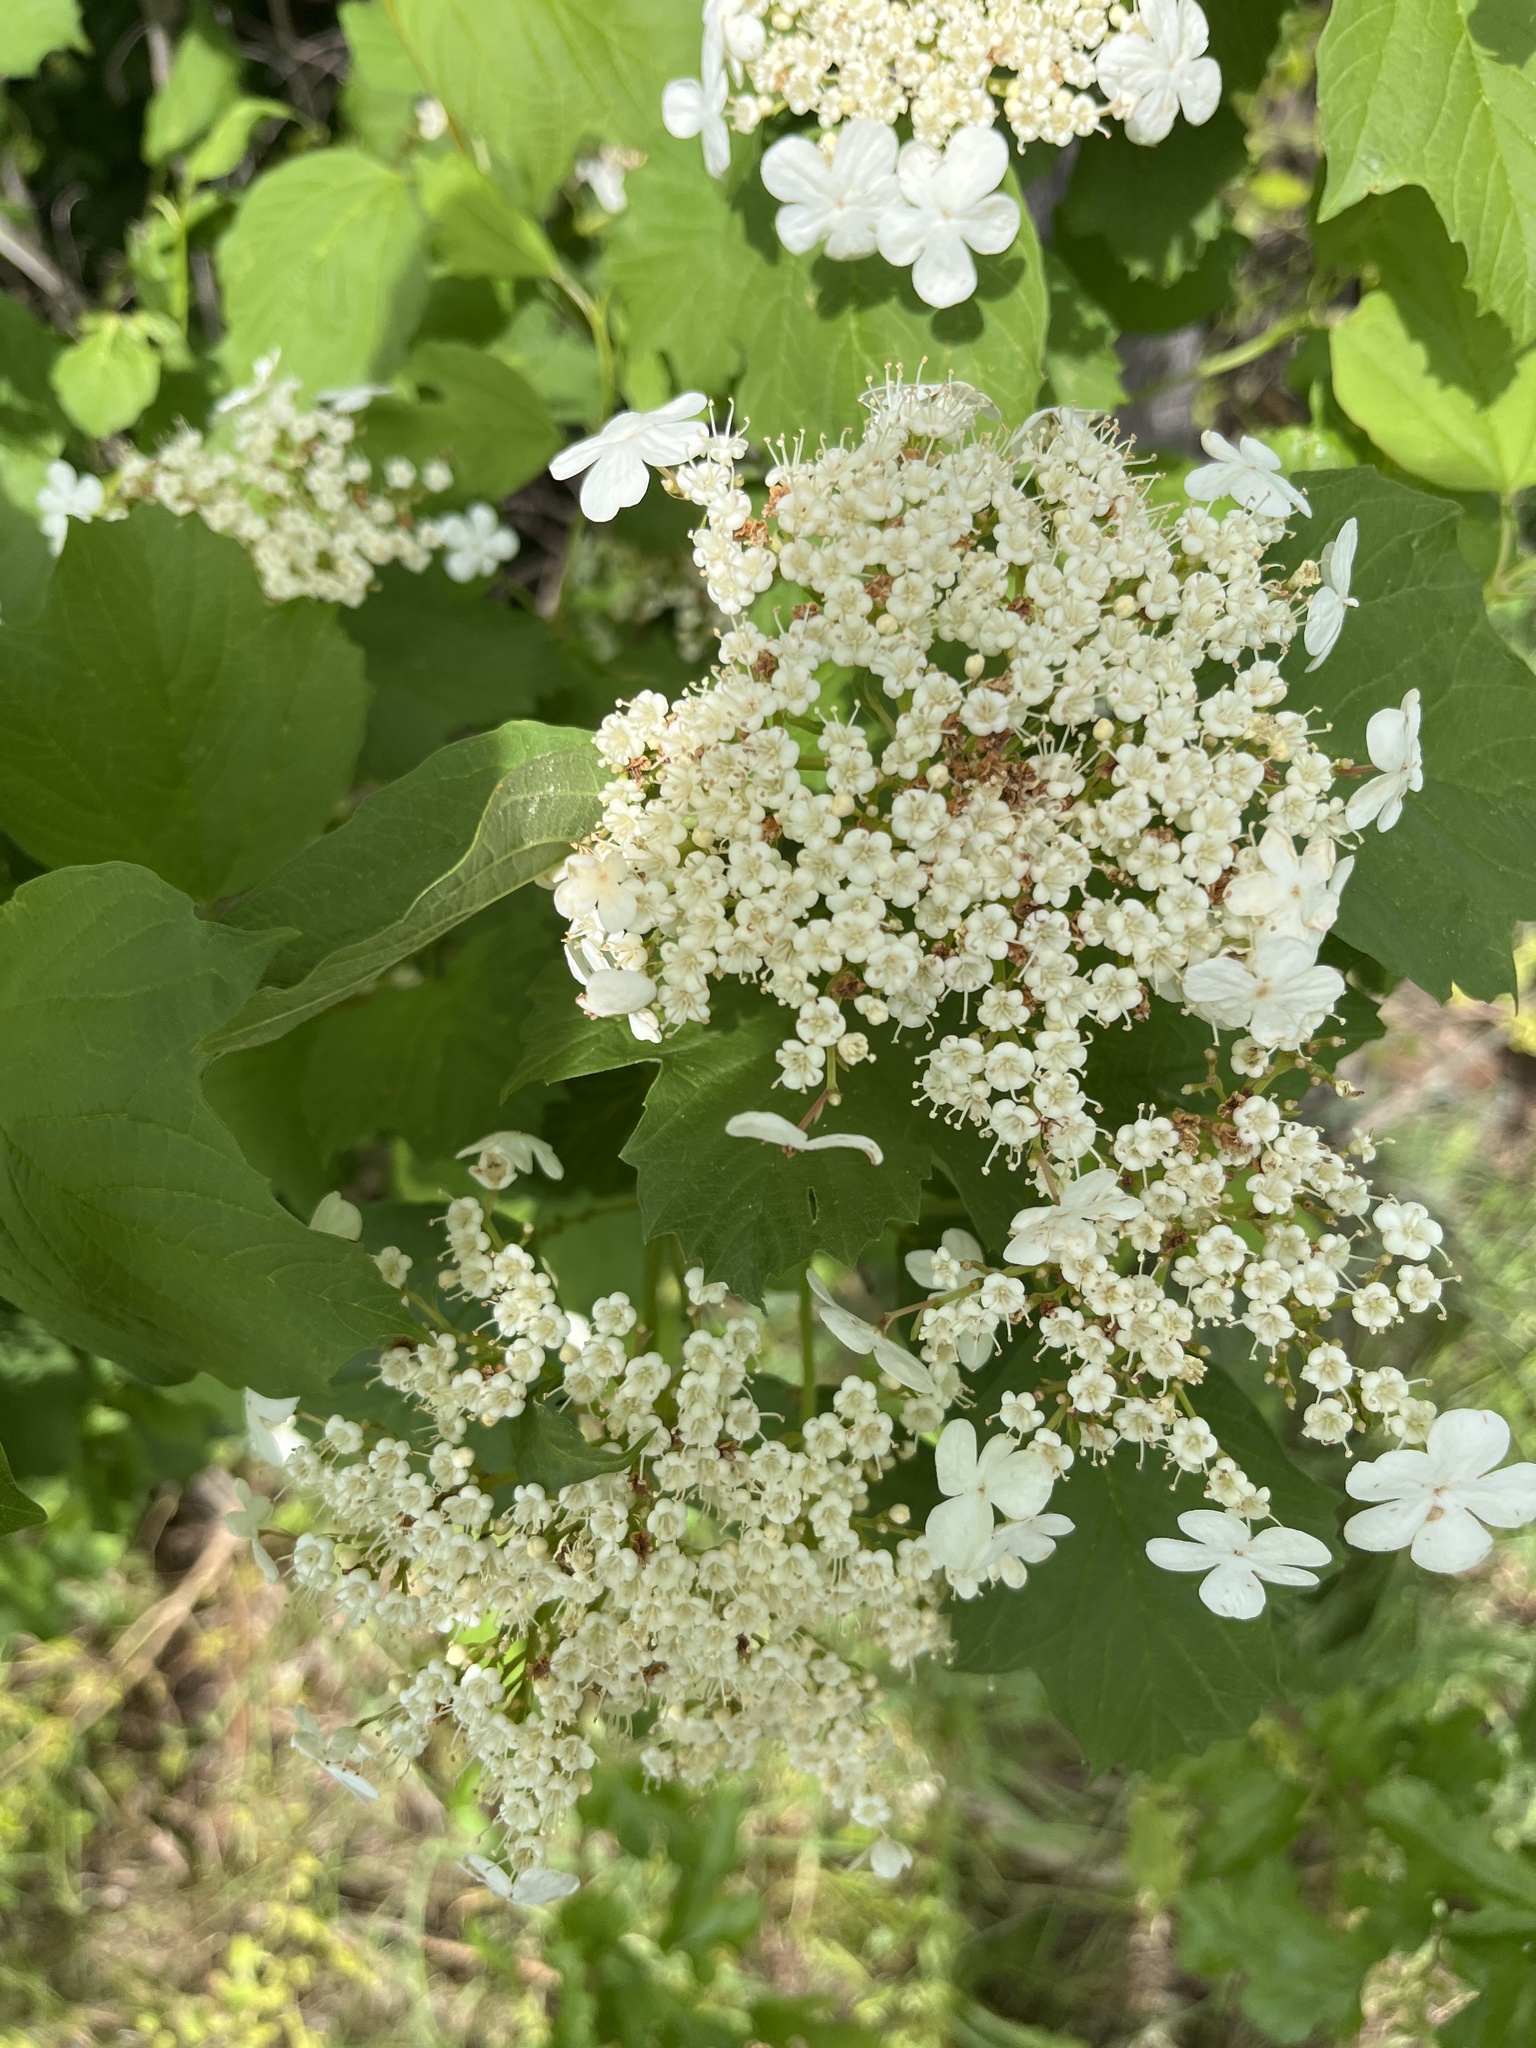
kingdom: Plantae
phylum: Tracheophyta
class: Magnoliopsida
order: Dipsacales
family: Viburnaceae
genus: Viburnum
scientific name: Viburnum opulus
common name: Guelder-rose
